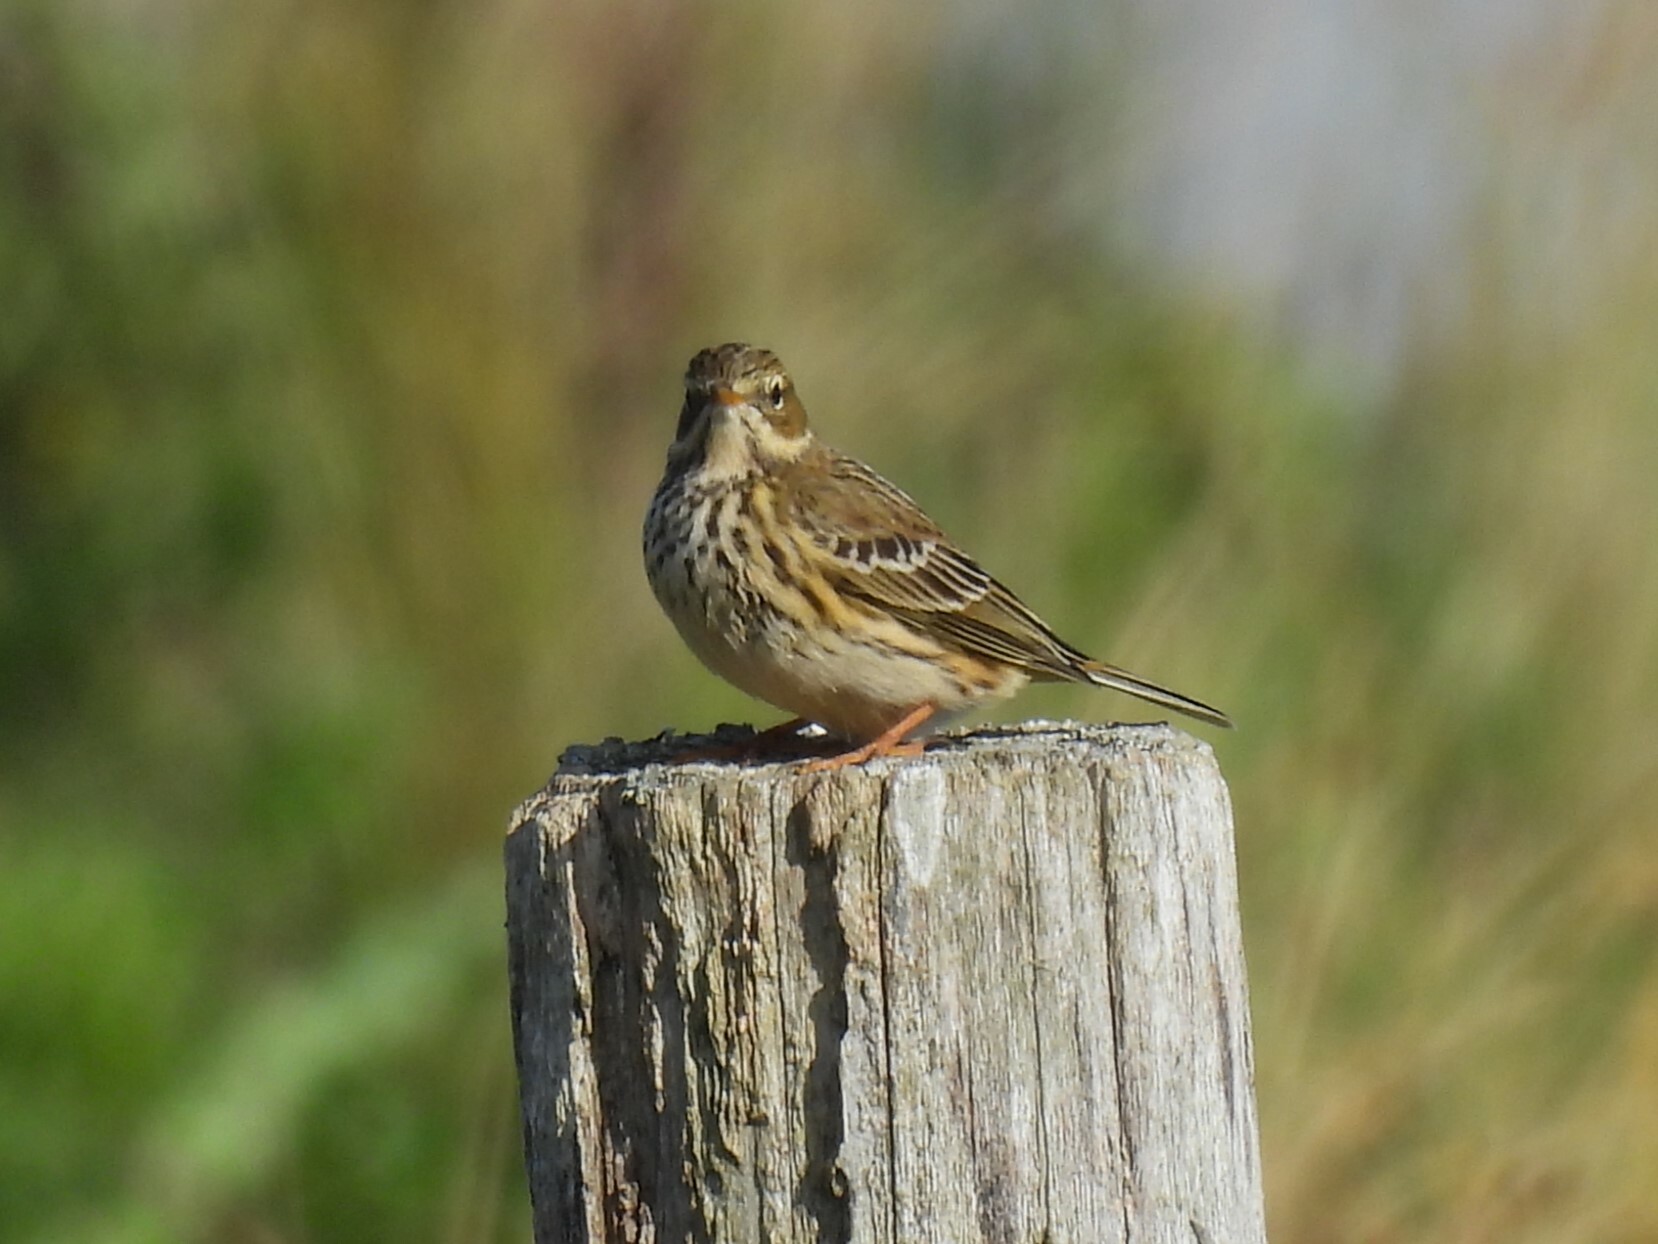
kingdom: Animalia
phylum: Chordata
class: Aves
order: Passeriformes
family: Motacillidae
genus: Anthus
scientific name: Anthus pratensis
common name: Meadow pipit
